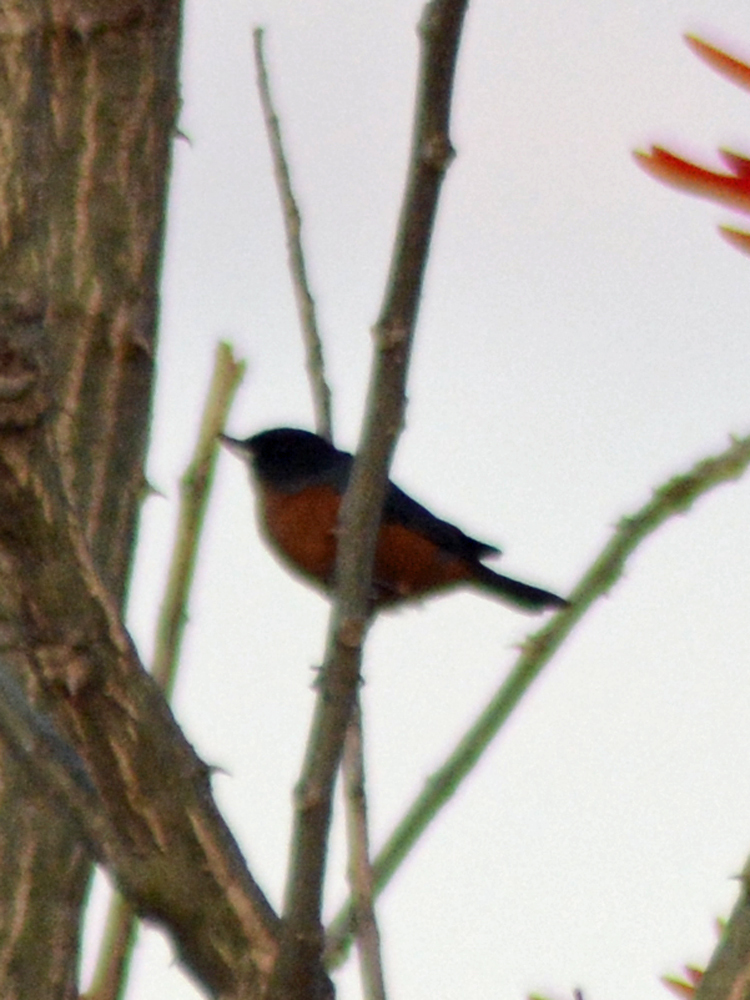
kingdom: Animalia
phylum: Chordata
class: Aves
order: Passeriformes
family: Thraupidae
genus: Diglossa
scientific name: Diglossa baritula
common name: Cinnamon-bellied flowerpiercer
